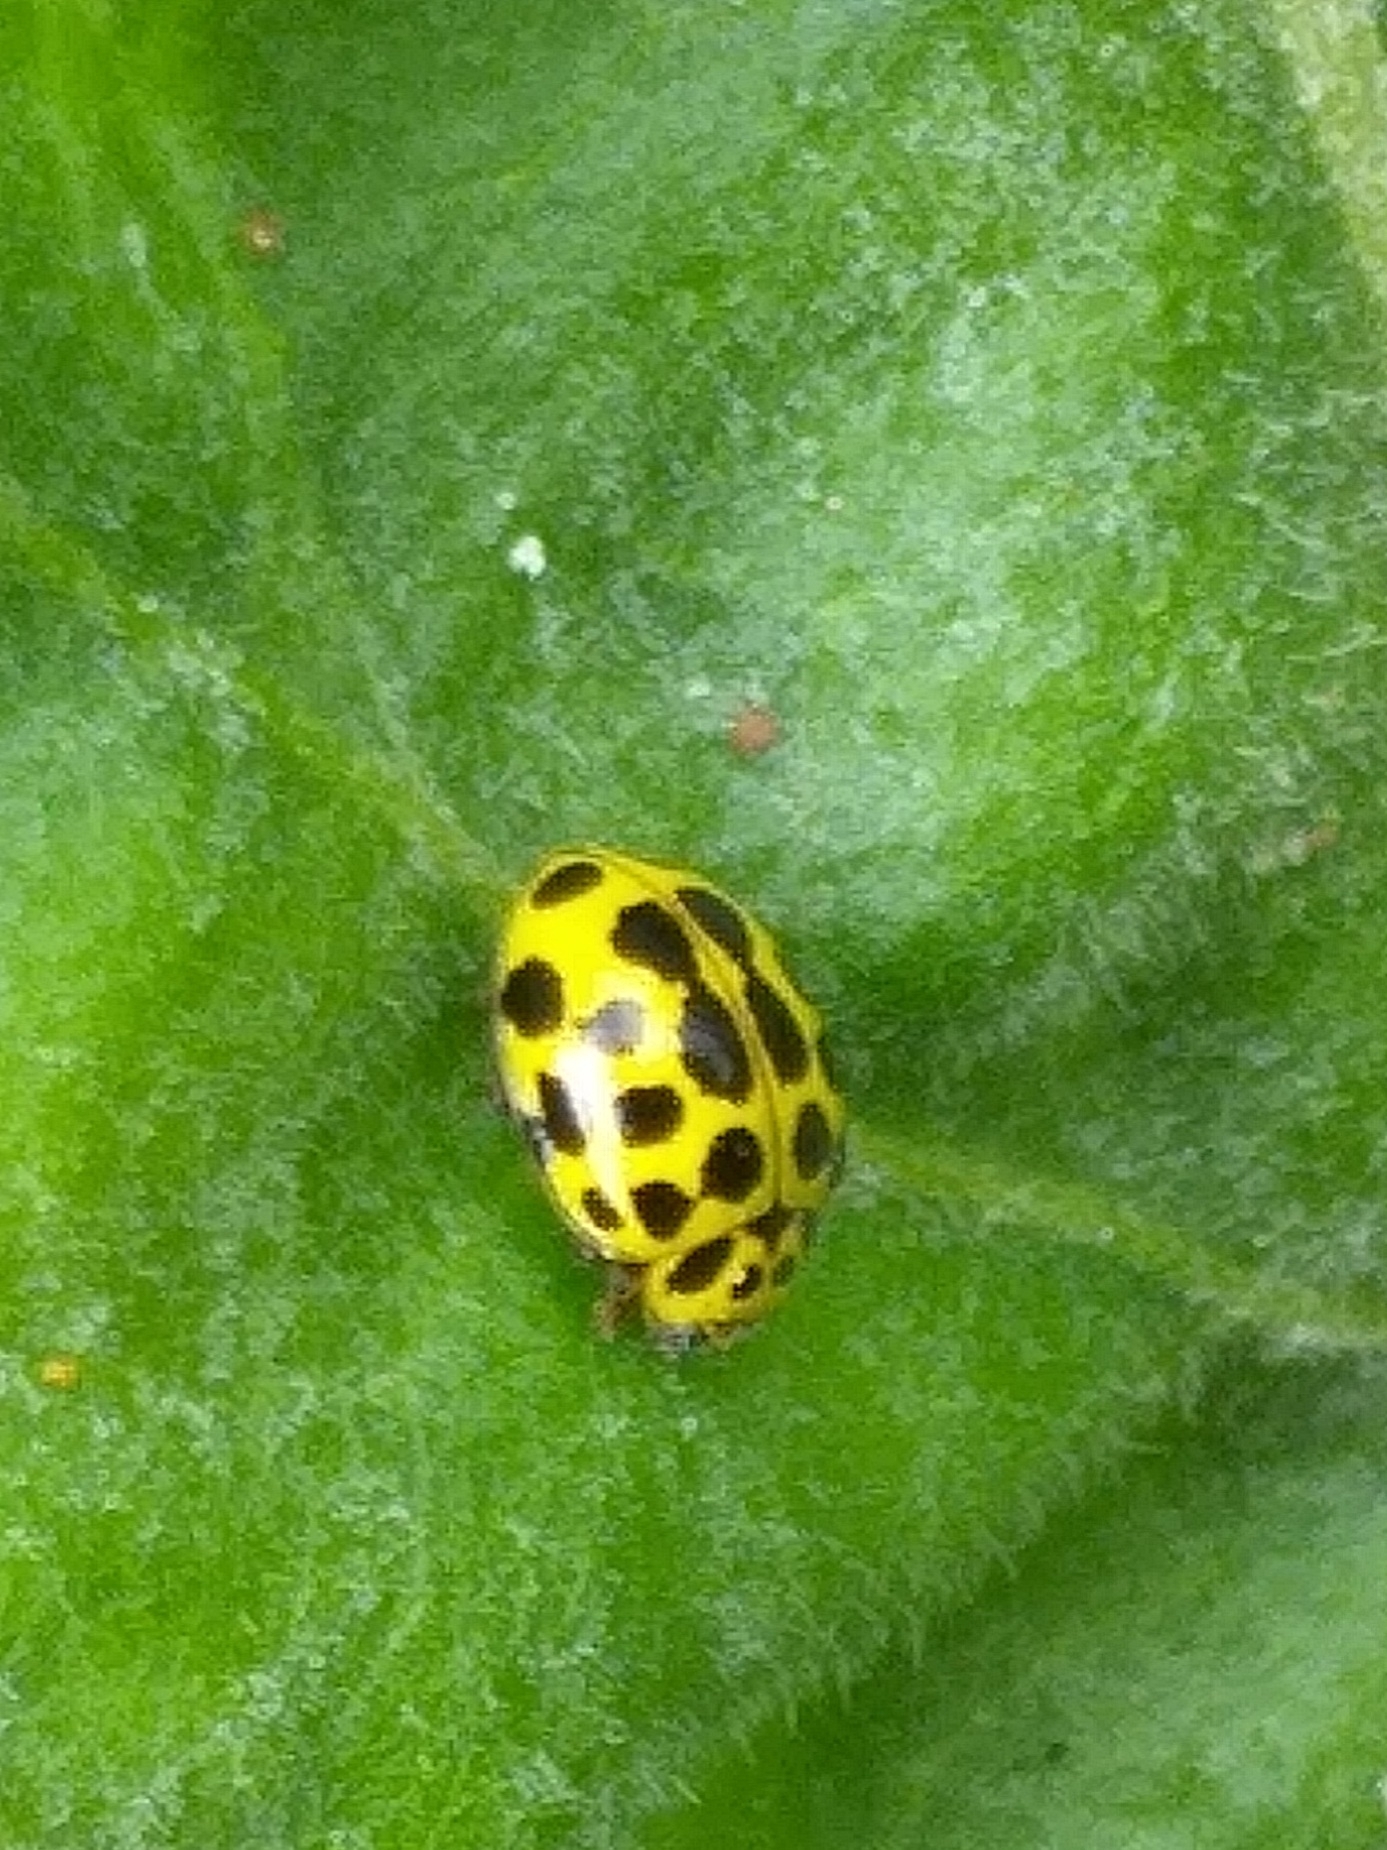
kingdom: Animalia
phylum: Arthropoda
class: Insecta
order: Coleoptera
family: Coccinellidae
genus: Psyllobora
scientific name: Psyllobora vigintiduopunctata
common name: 22-spot ladybird
